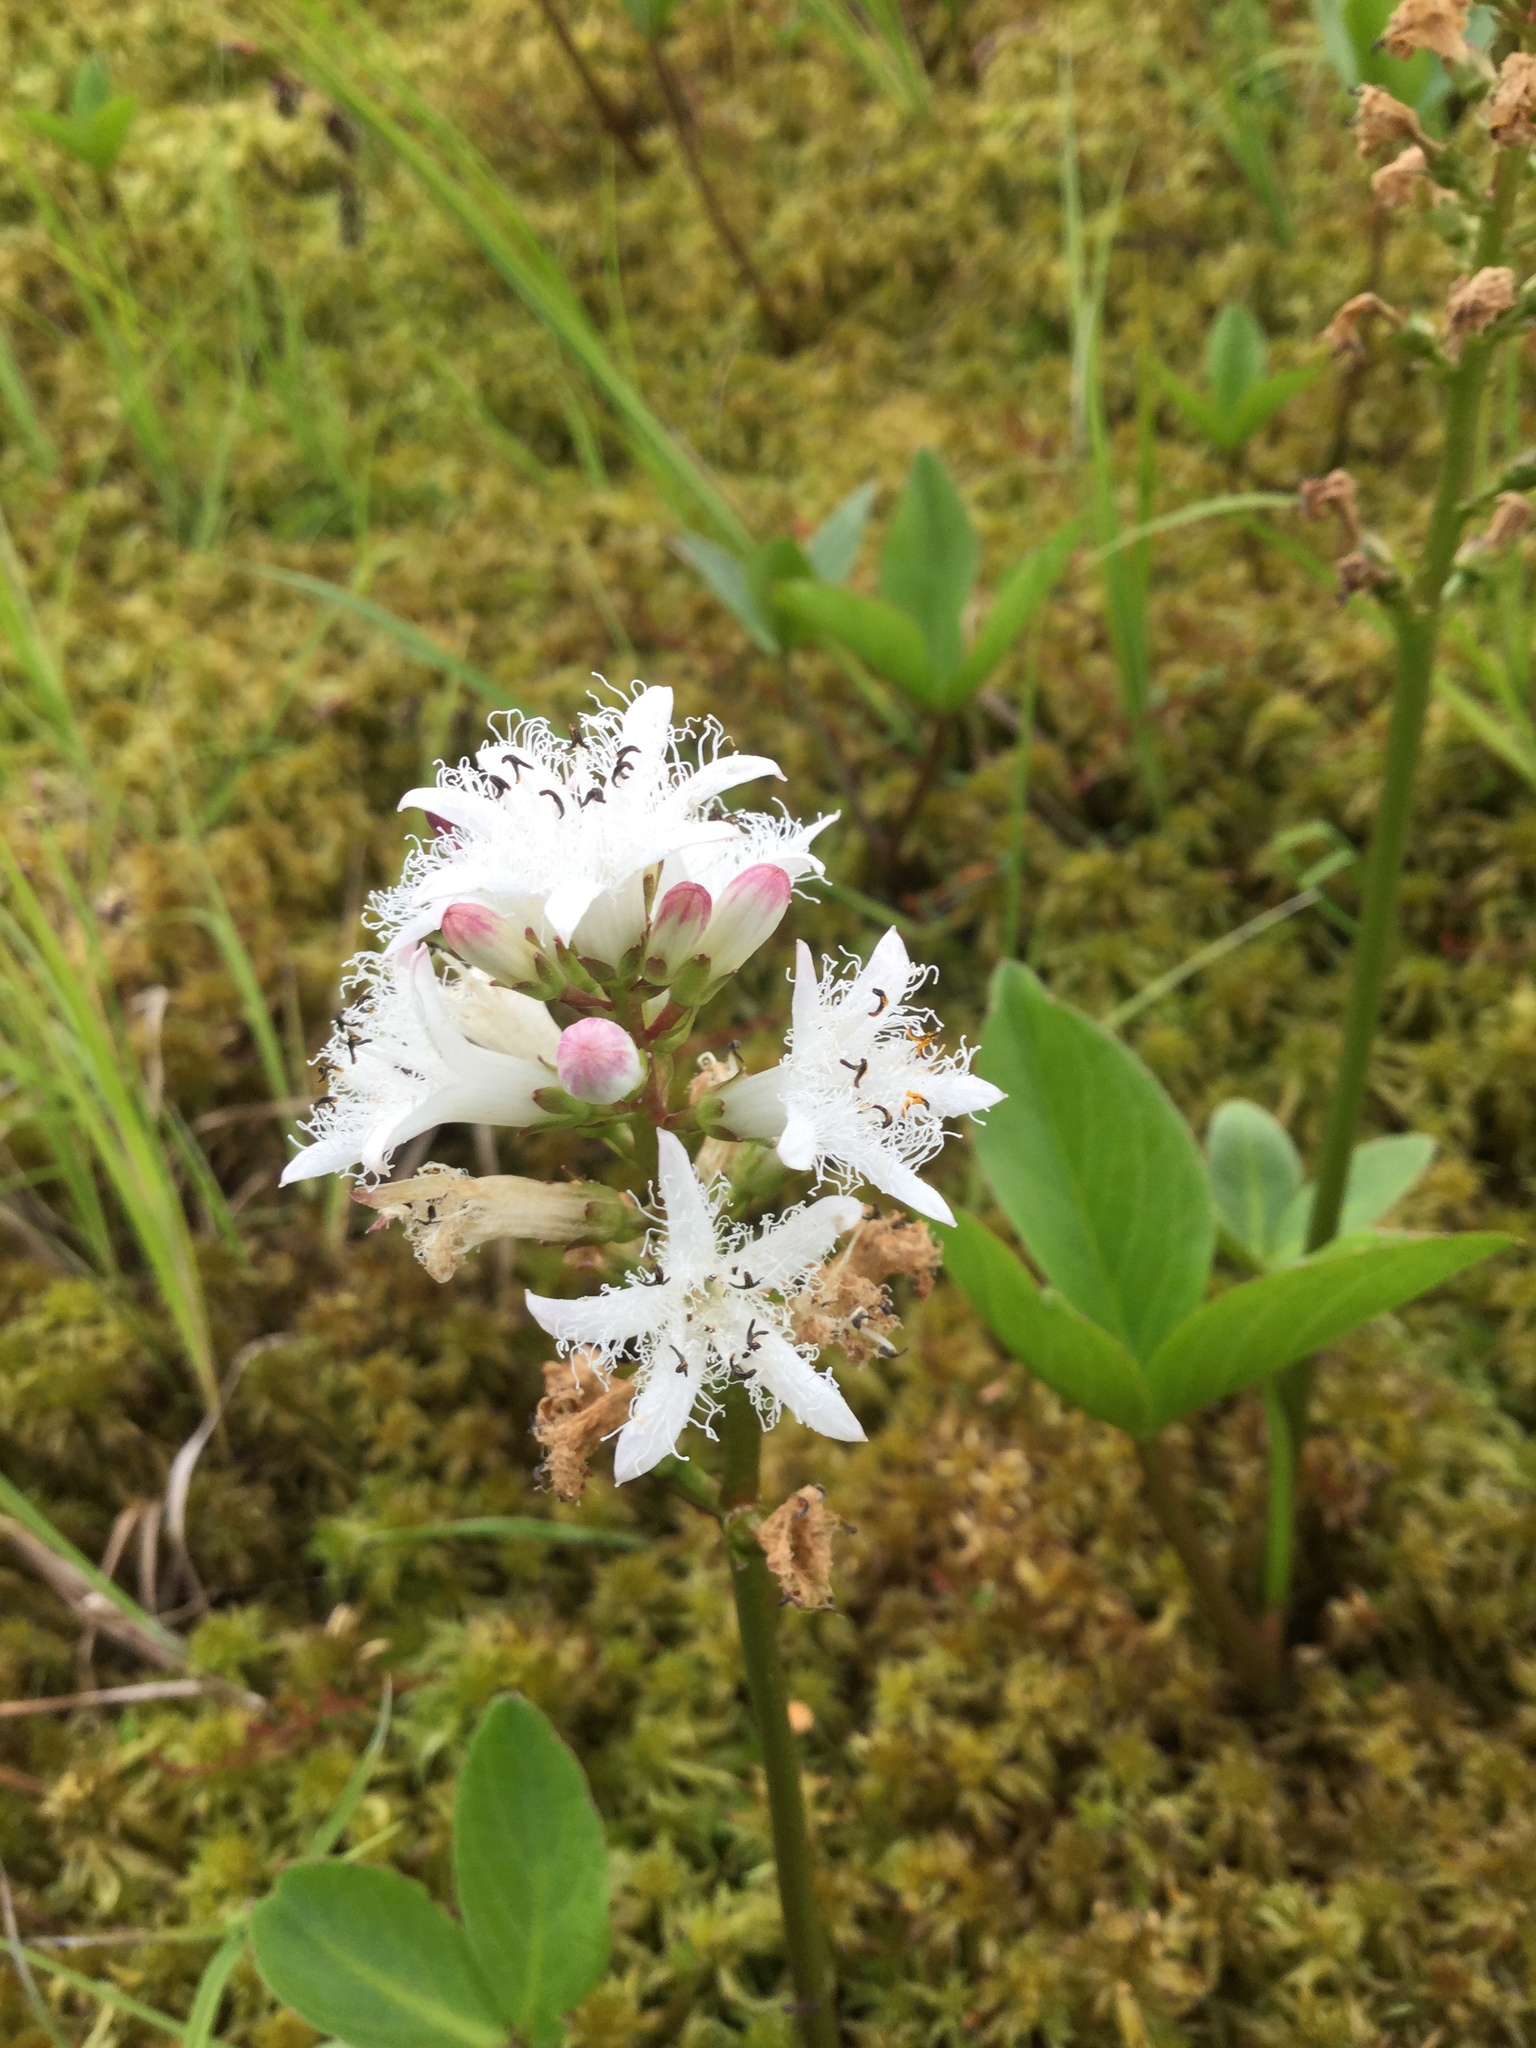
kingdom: Plantae
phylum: Tracheophyta
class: Magnoliopsida
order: Asterales
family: Menyanthaceae
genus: Menyanthes
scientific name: Menyanthes trifoliata
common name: Bogbean
